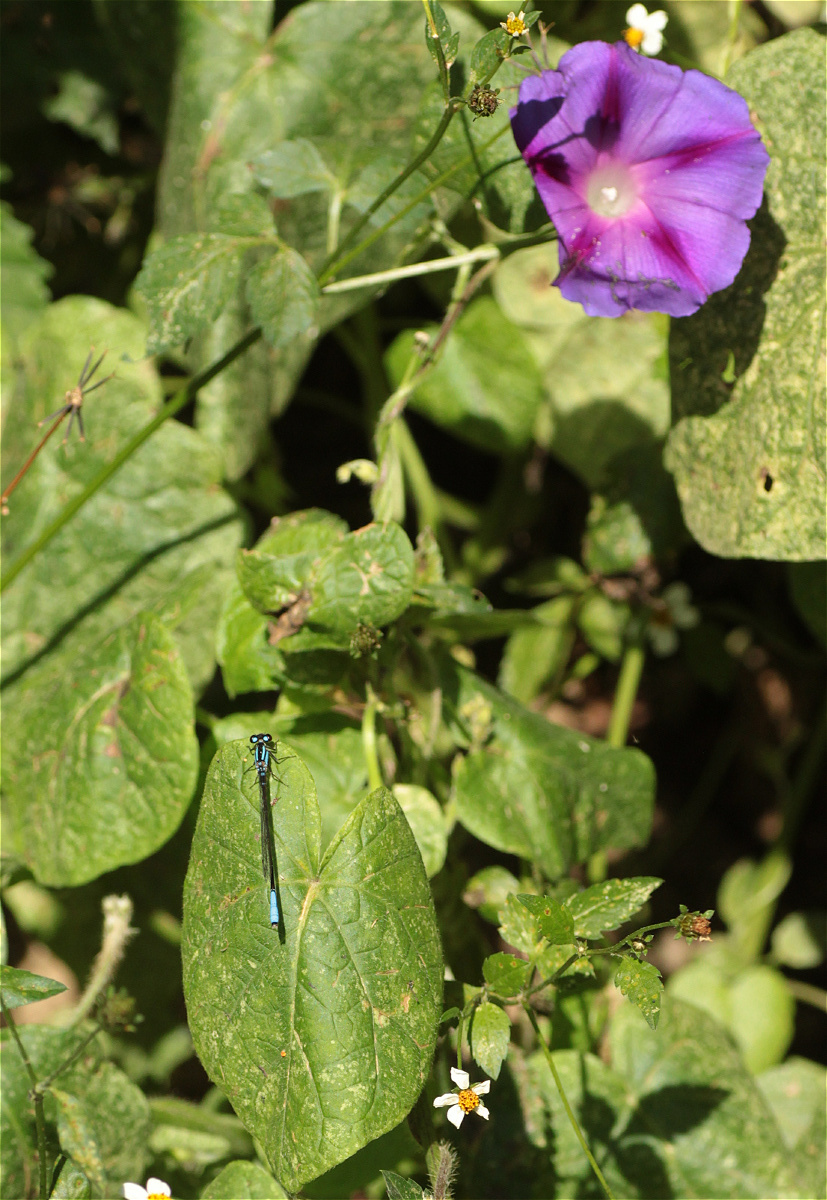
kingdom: Plantae
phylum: Tracheophyta
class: Magnoliopsida
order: Solanales
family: Convolvulaceae
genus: Ipomoea
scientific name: Ipomoea purpurea
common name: Common morning-glory
